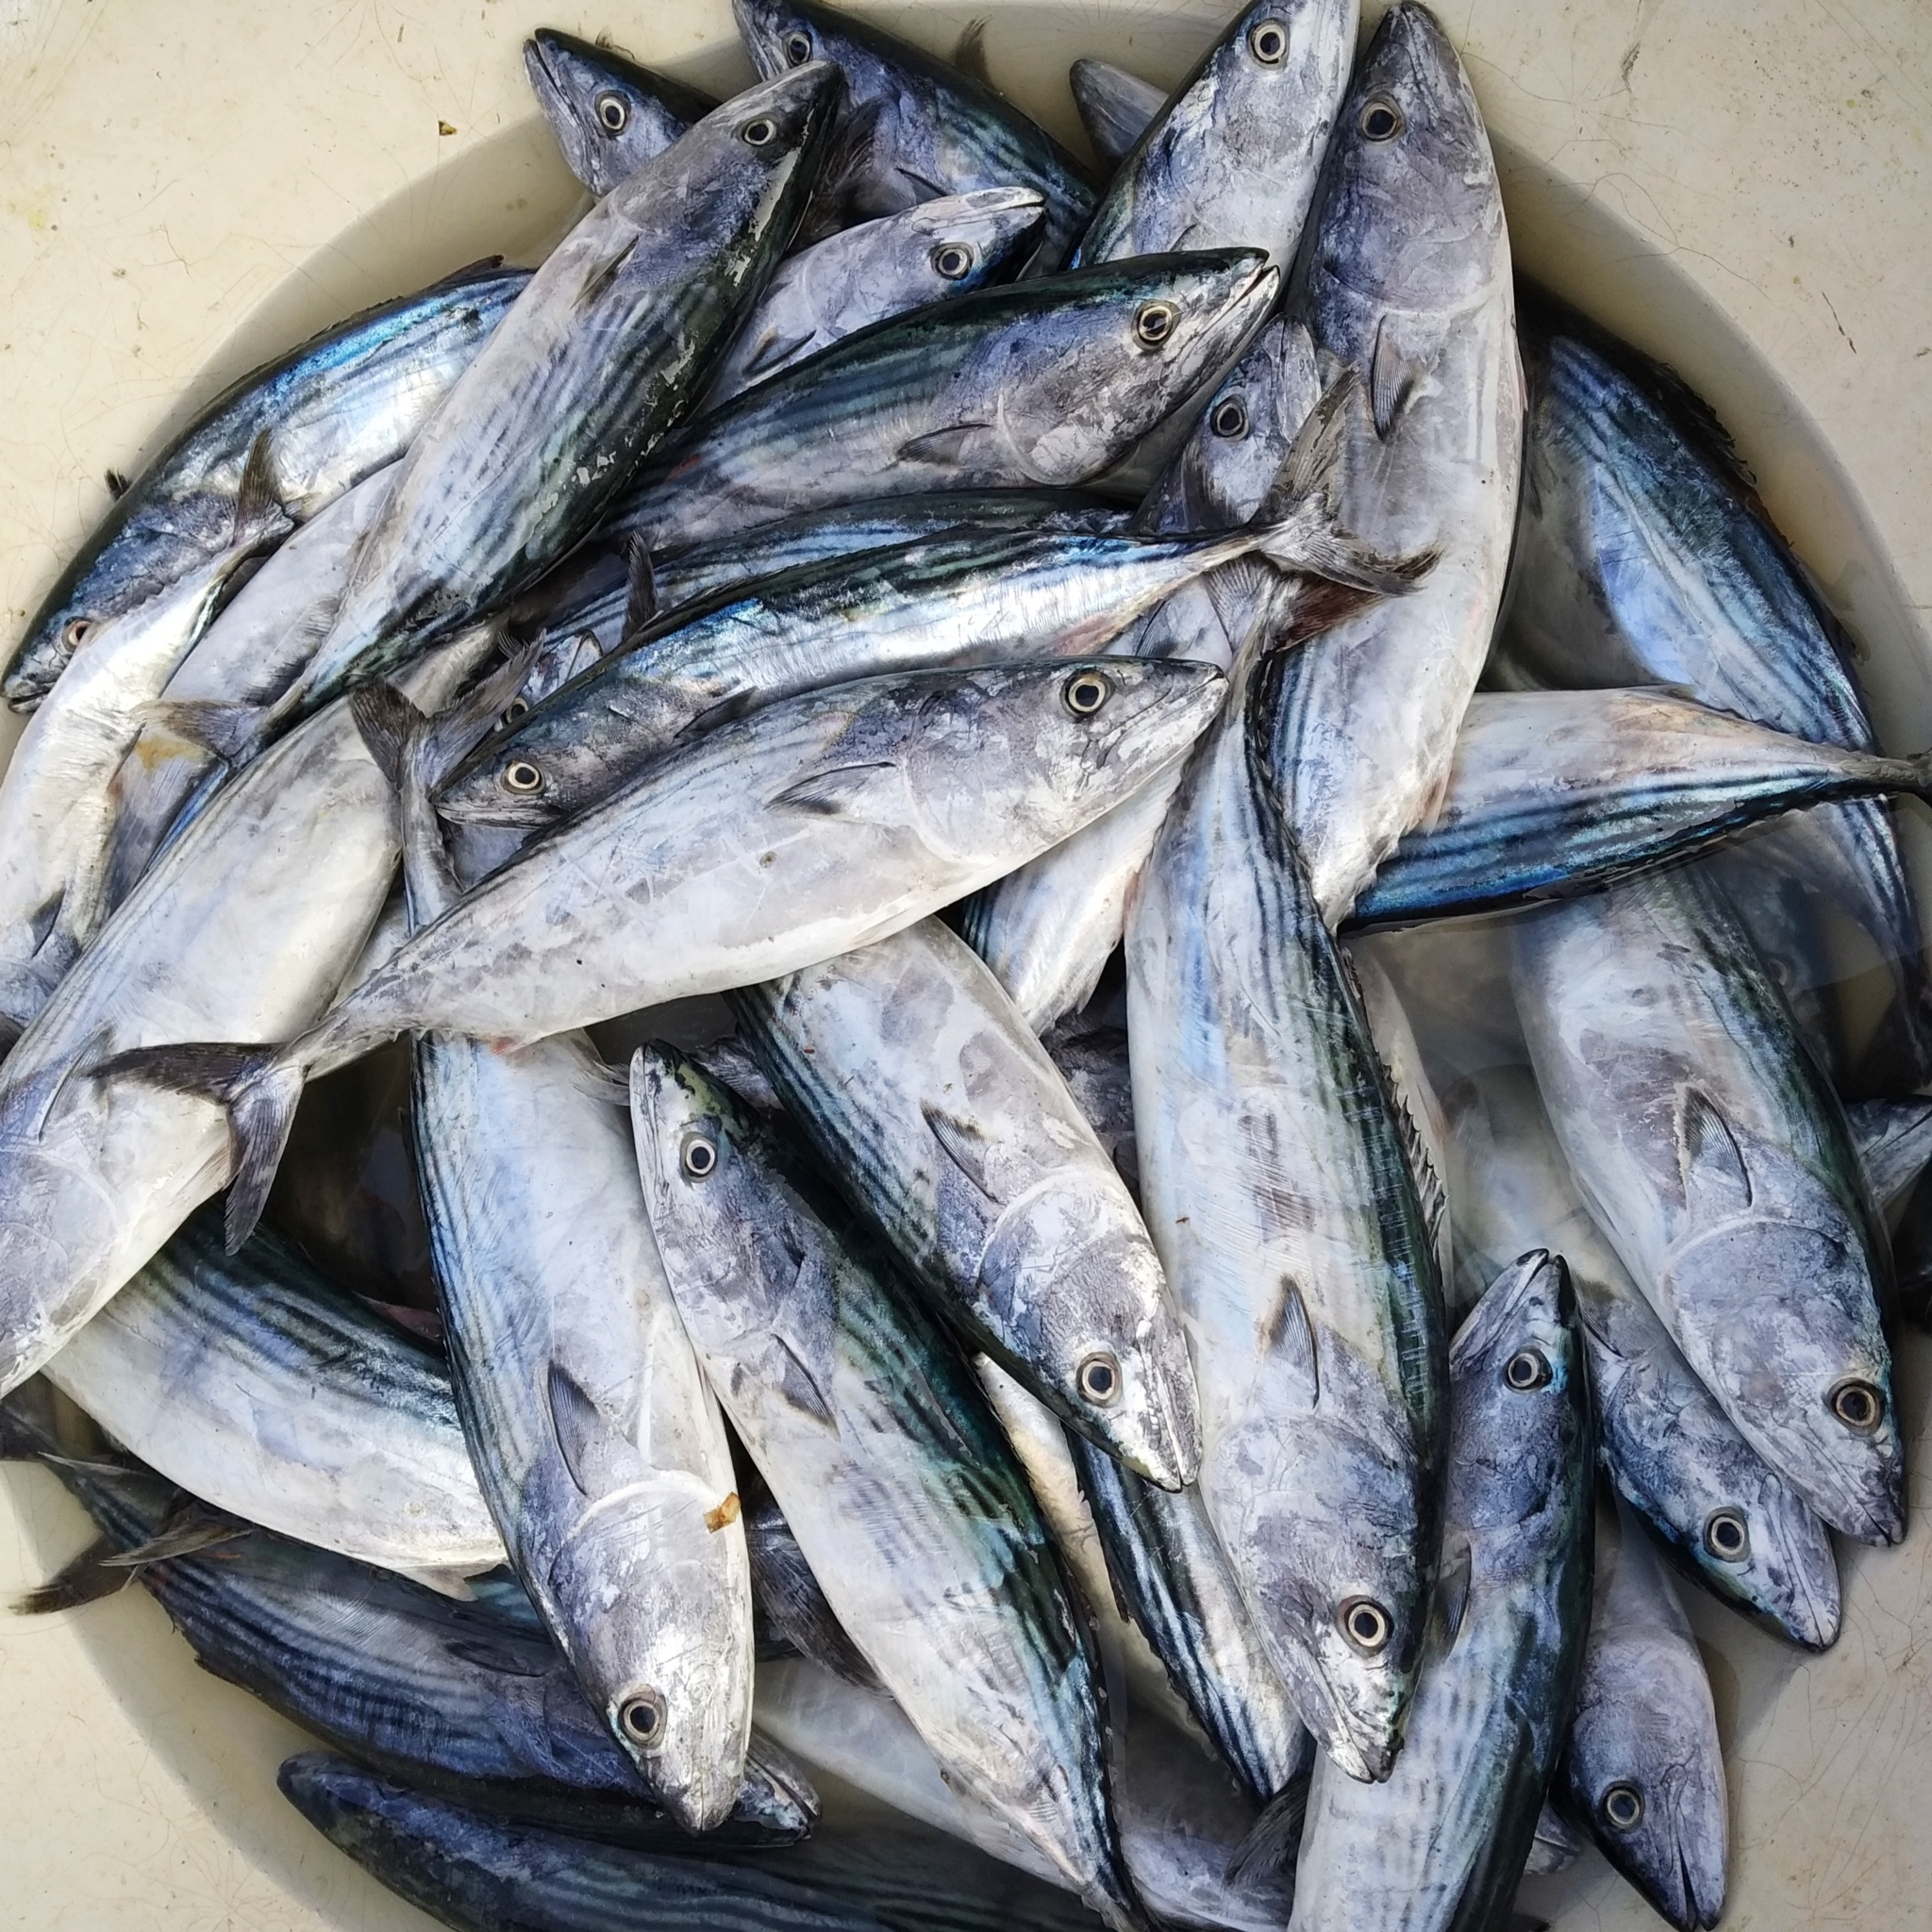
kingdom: Animalia
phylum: Chordata
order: Perciformes
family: Scombridae
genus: Sarda
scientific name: Sarda orientalis
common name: Striped bonito
